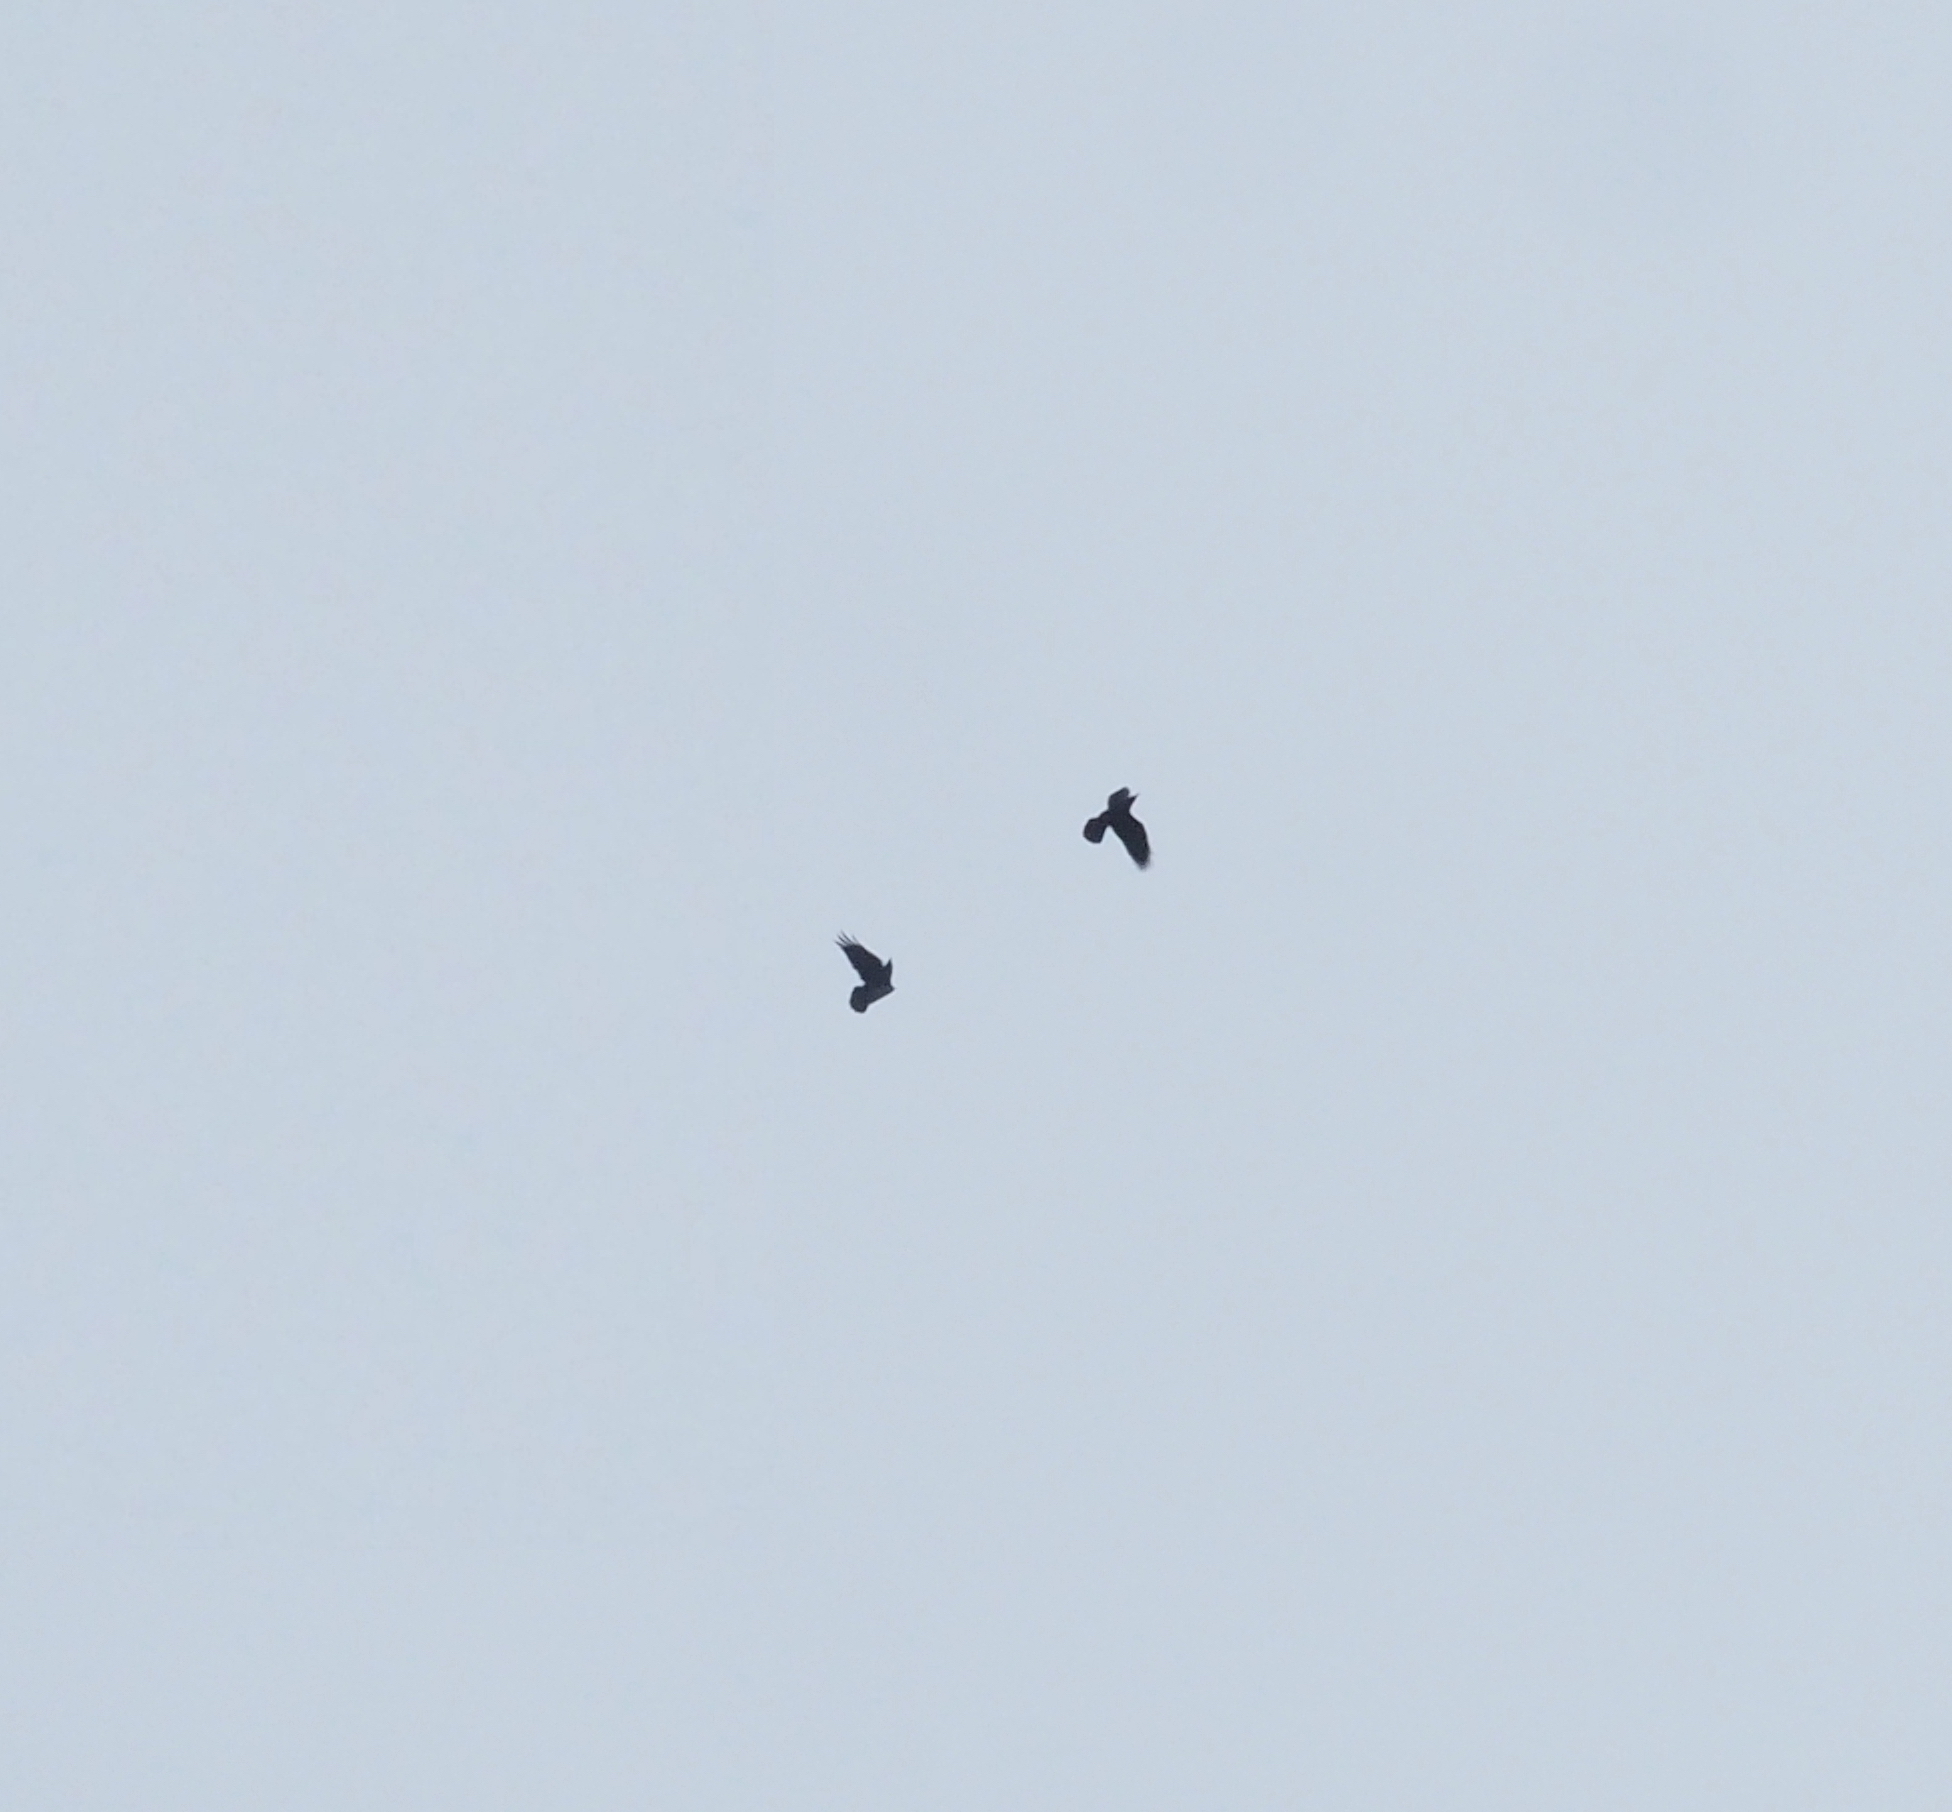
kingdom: Animalia
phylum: Chordata
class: Aves
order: Passeriformes
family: Corvidae
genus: Corvus
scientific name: Corvus corax
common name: Common raven
